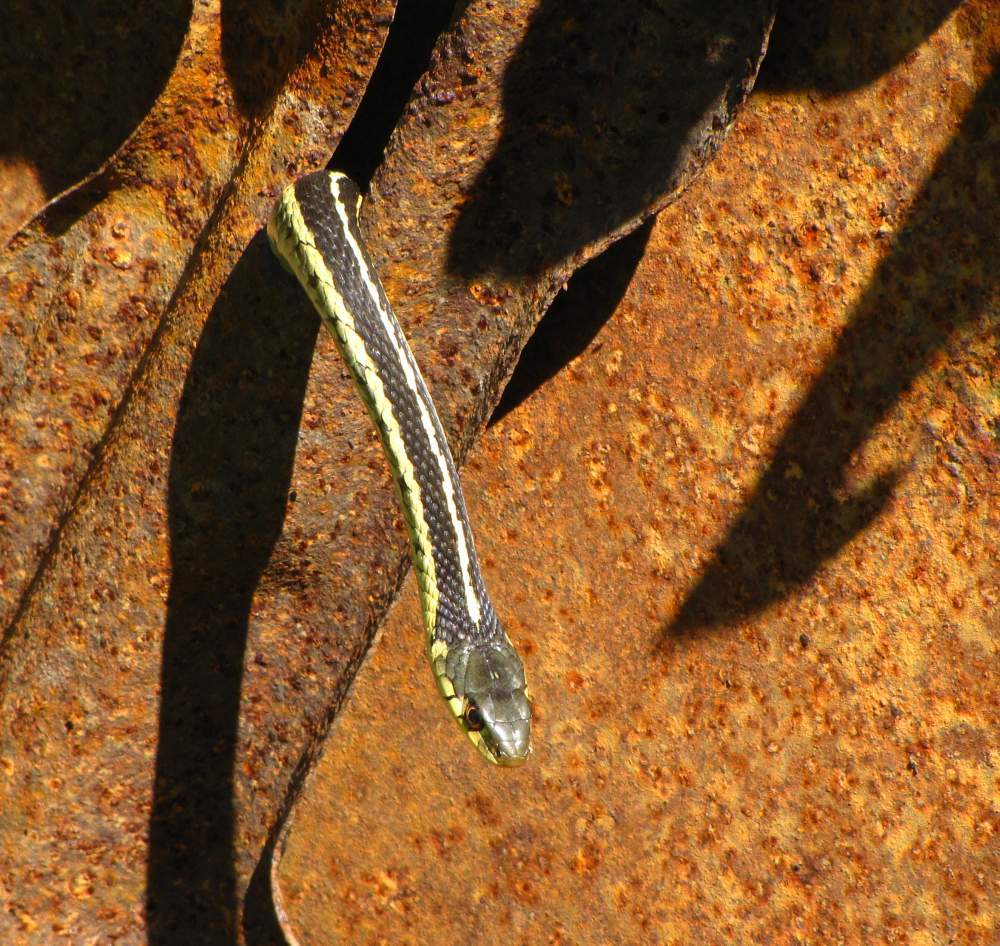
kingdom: Animalia
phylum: Chordata
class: Squamata
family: Colubridae
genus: Thamnophis
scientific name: Thamnophis sirtalis
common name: Common garter snake
